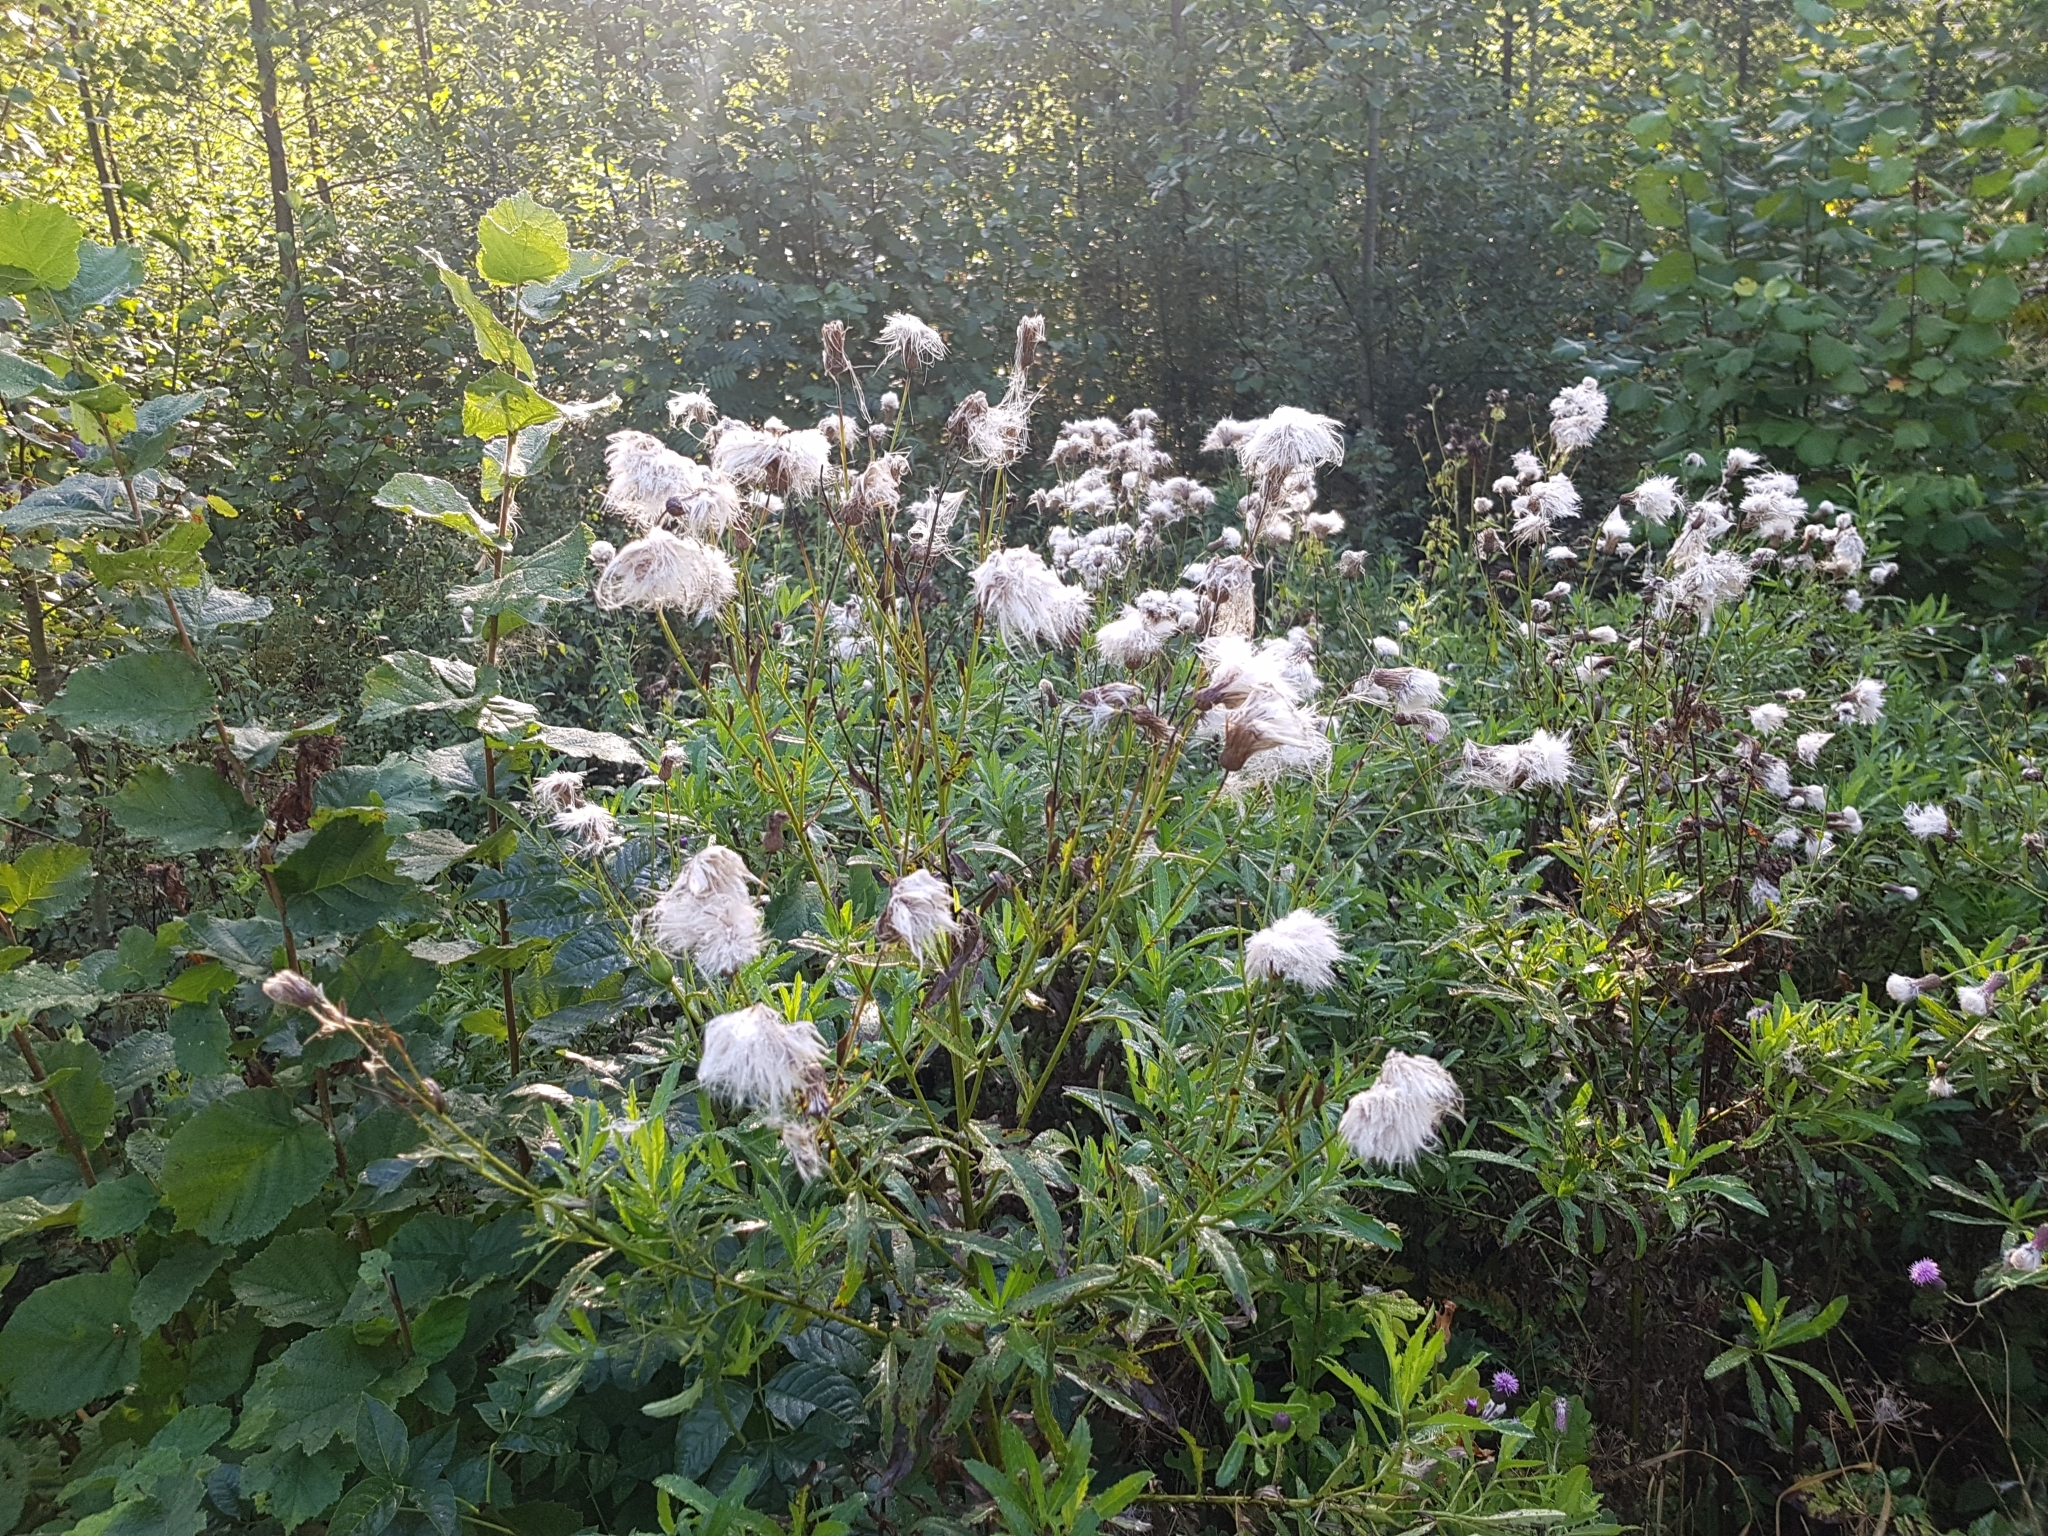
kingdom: Plantae
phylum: Tracheophyta
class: Magnoliopsida
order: Asterales
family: Asteraceae
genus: Cirsium
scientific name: Cirsium arvense
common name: Creeping thistle
